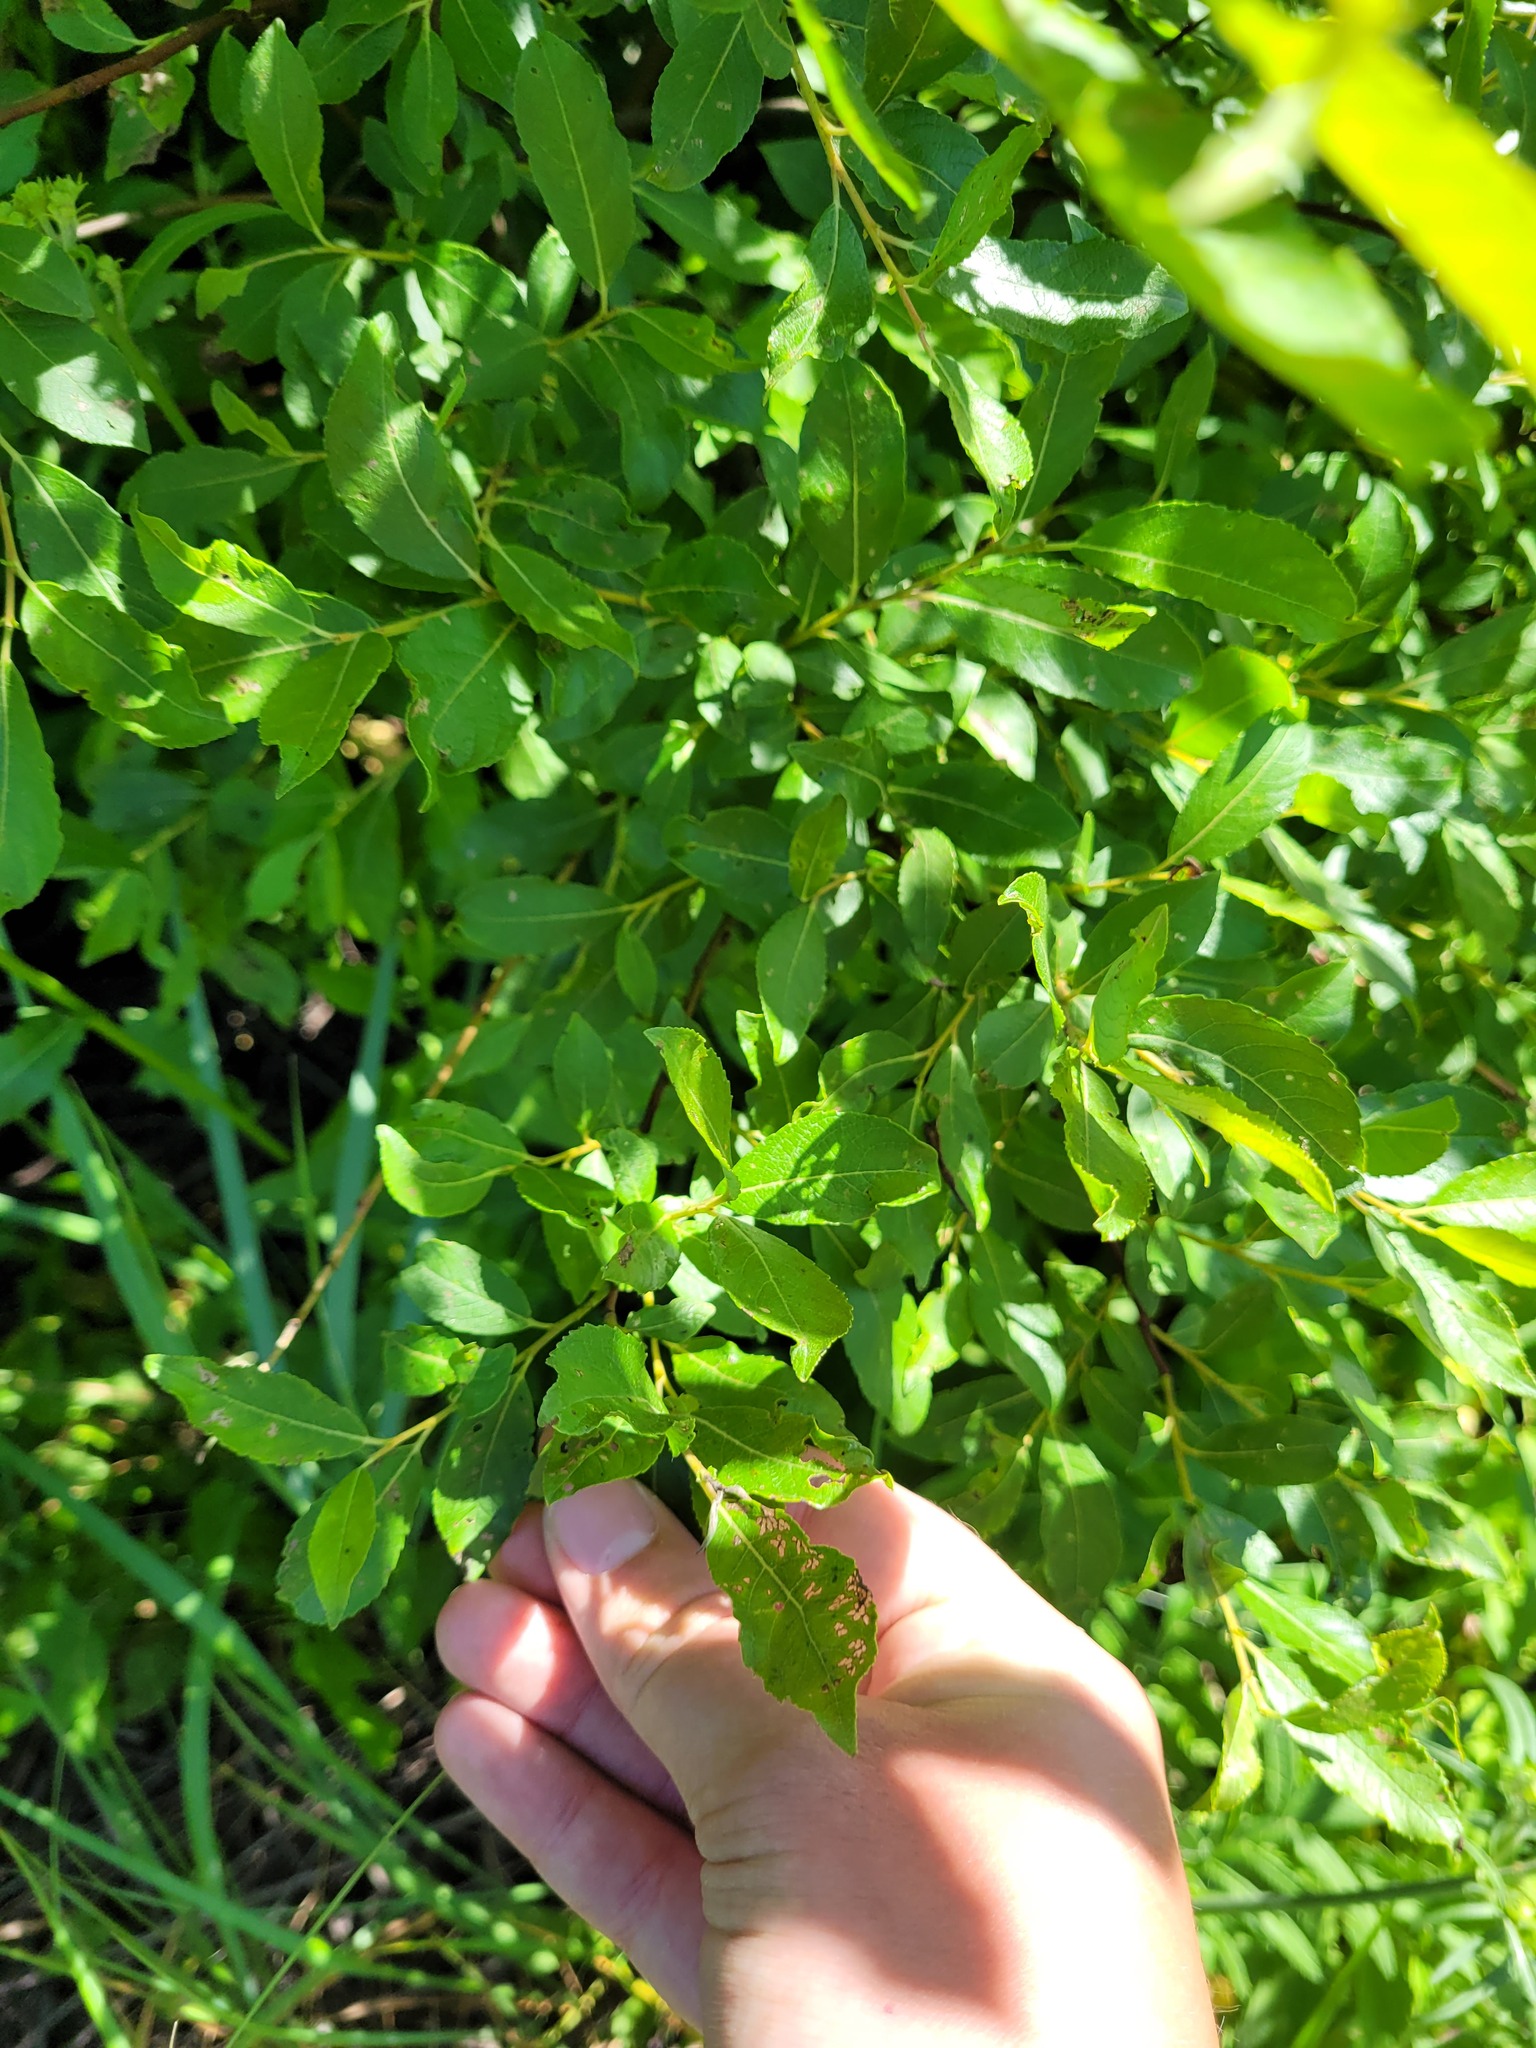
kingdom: Plantae
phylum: Tracheophyta
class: Magnoliopsida
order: Malpighiales
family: Salicaceae
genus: Salix
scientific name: Salix myrsinifolia
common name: Dark-leaved willow
